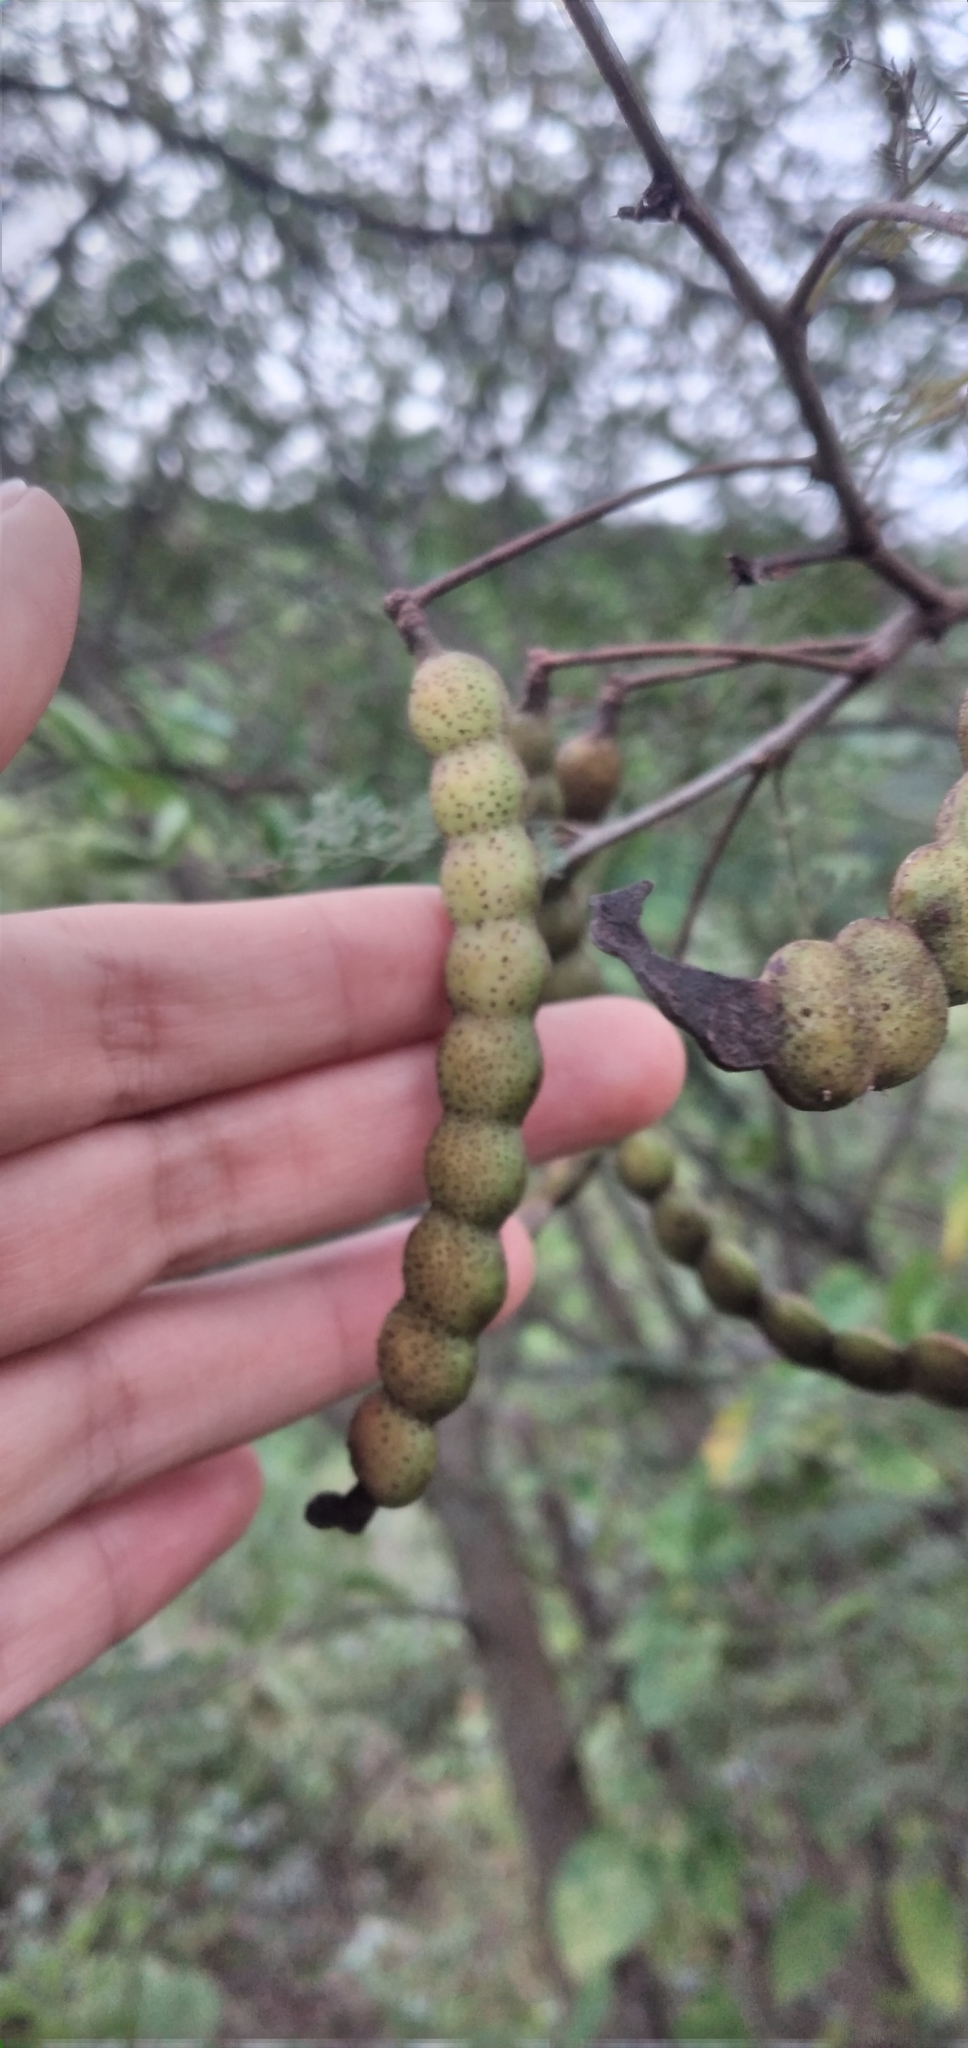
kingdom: Plantae
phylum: Tracheophyta
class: Magnoliopsida
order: Fabales
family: Fabaceae
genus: Vachellia
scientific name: Vachellia aroma
